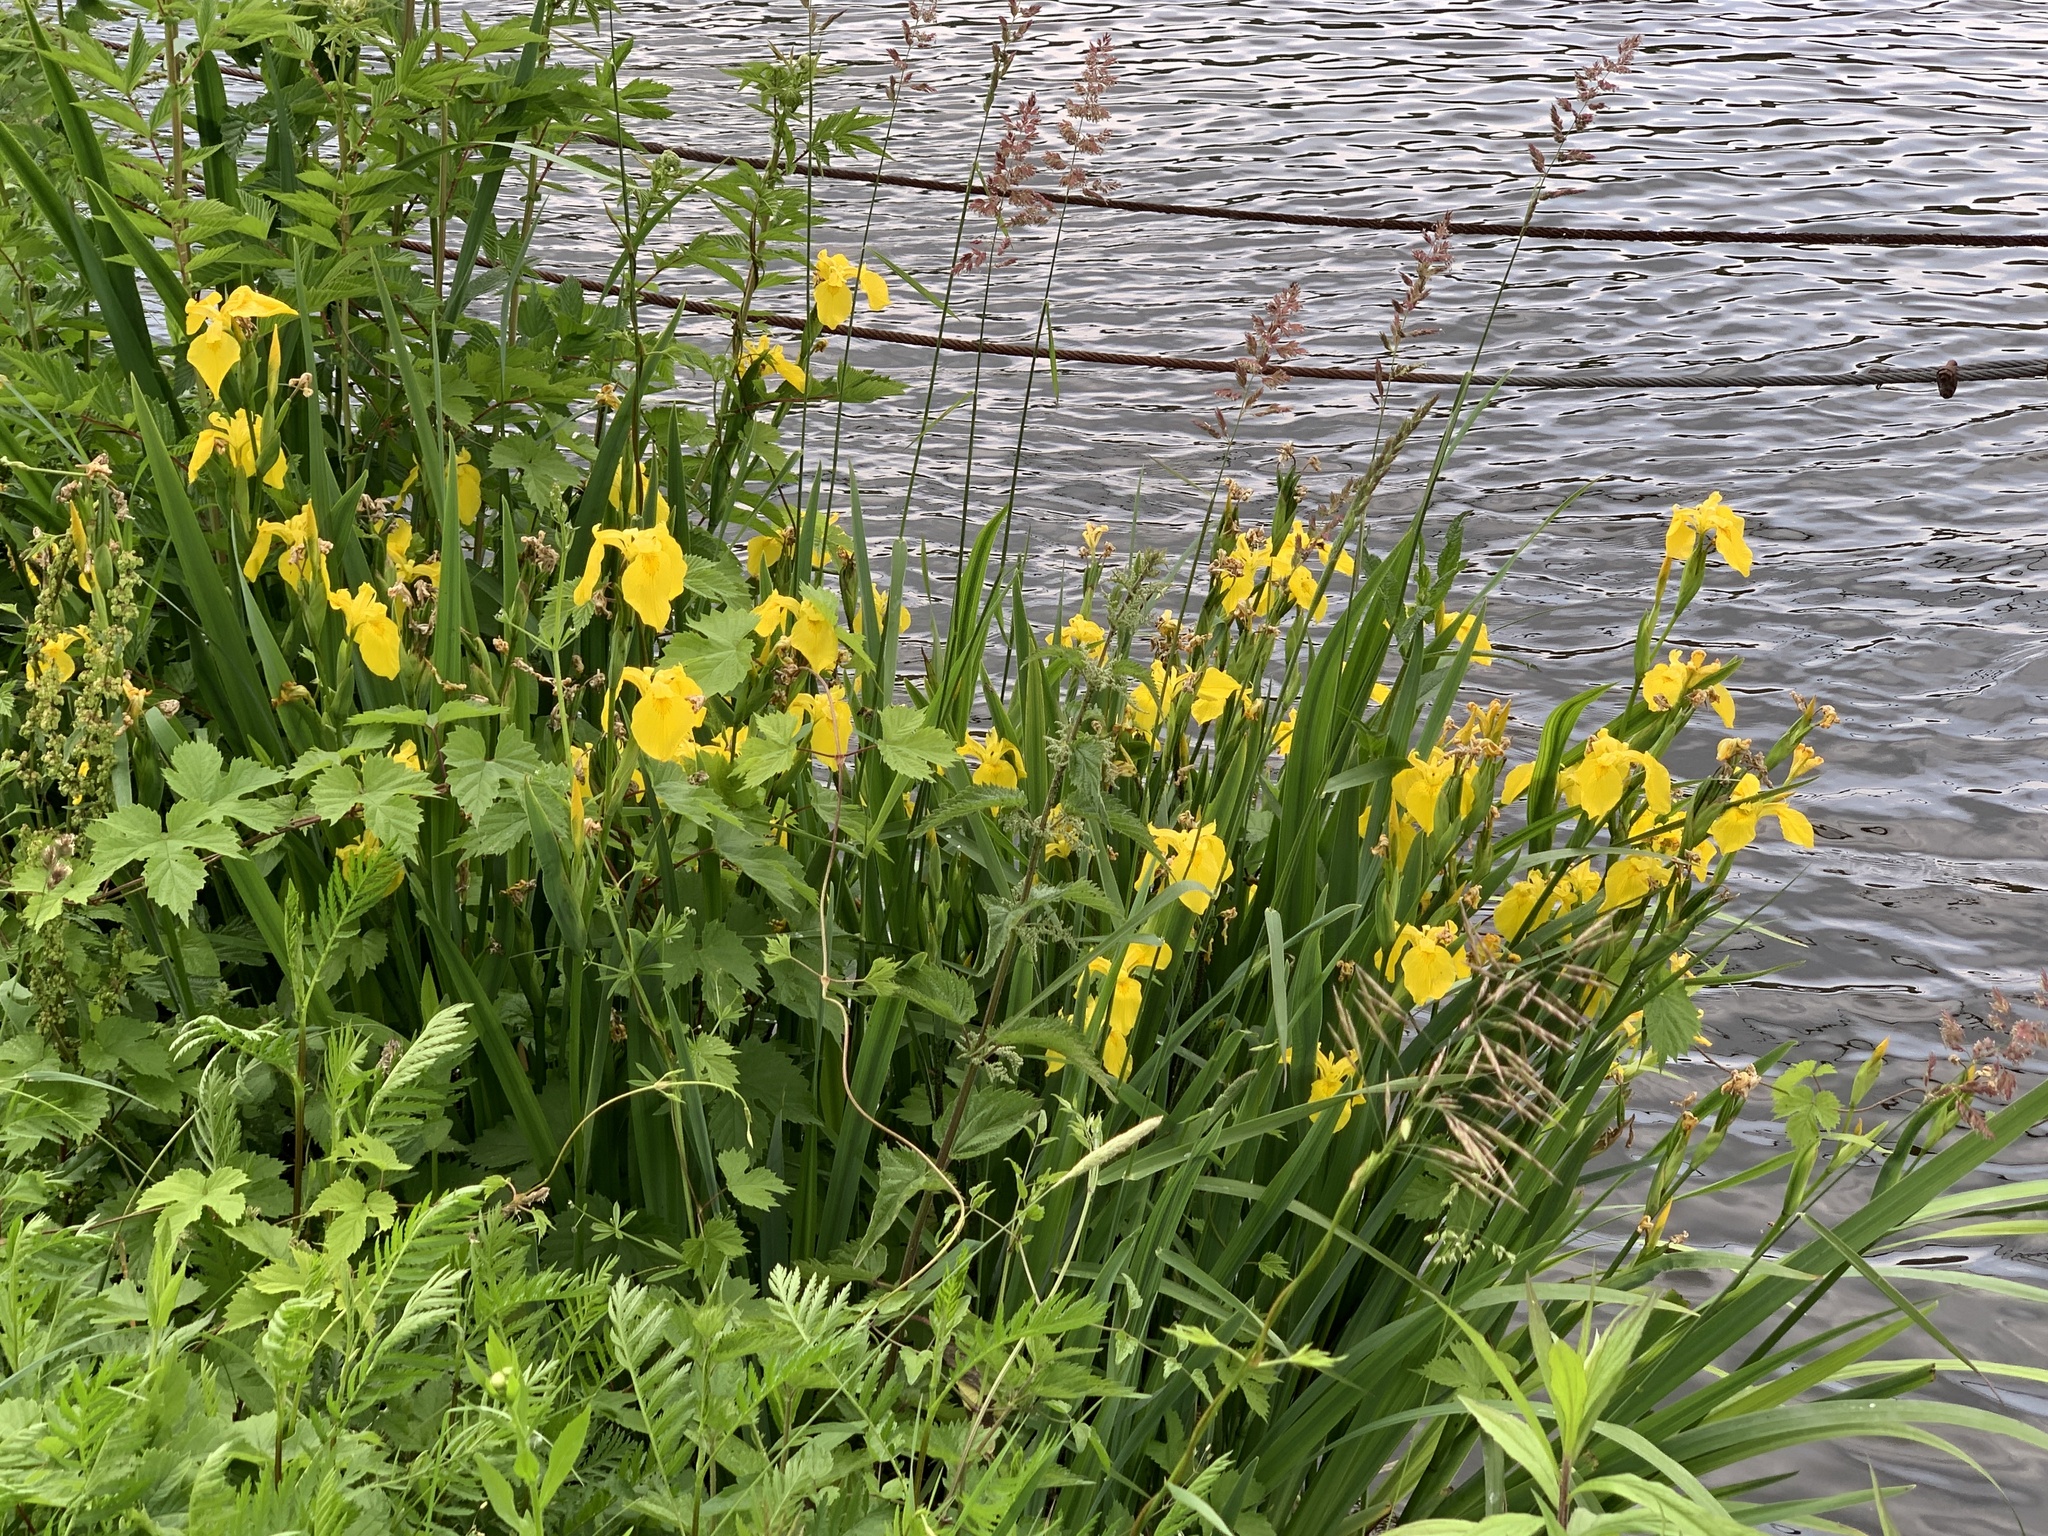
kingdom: Plantae
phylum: Tracheophyta
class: Liliopsida
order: Asparagales
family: Iridaceae
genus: Iris
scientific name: Iris pseudacorus
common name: Yellow flag
